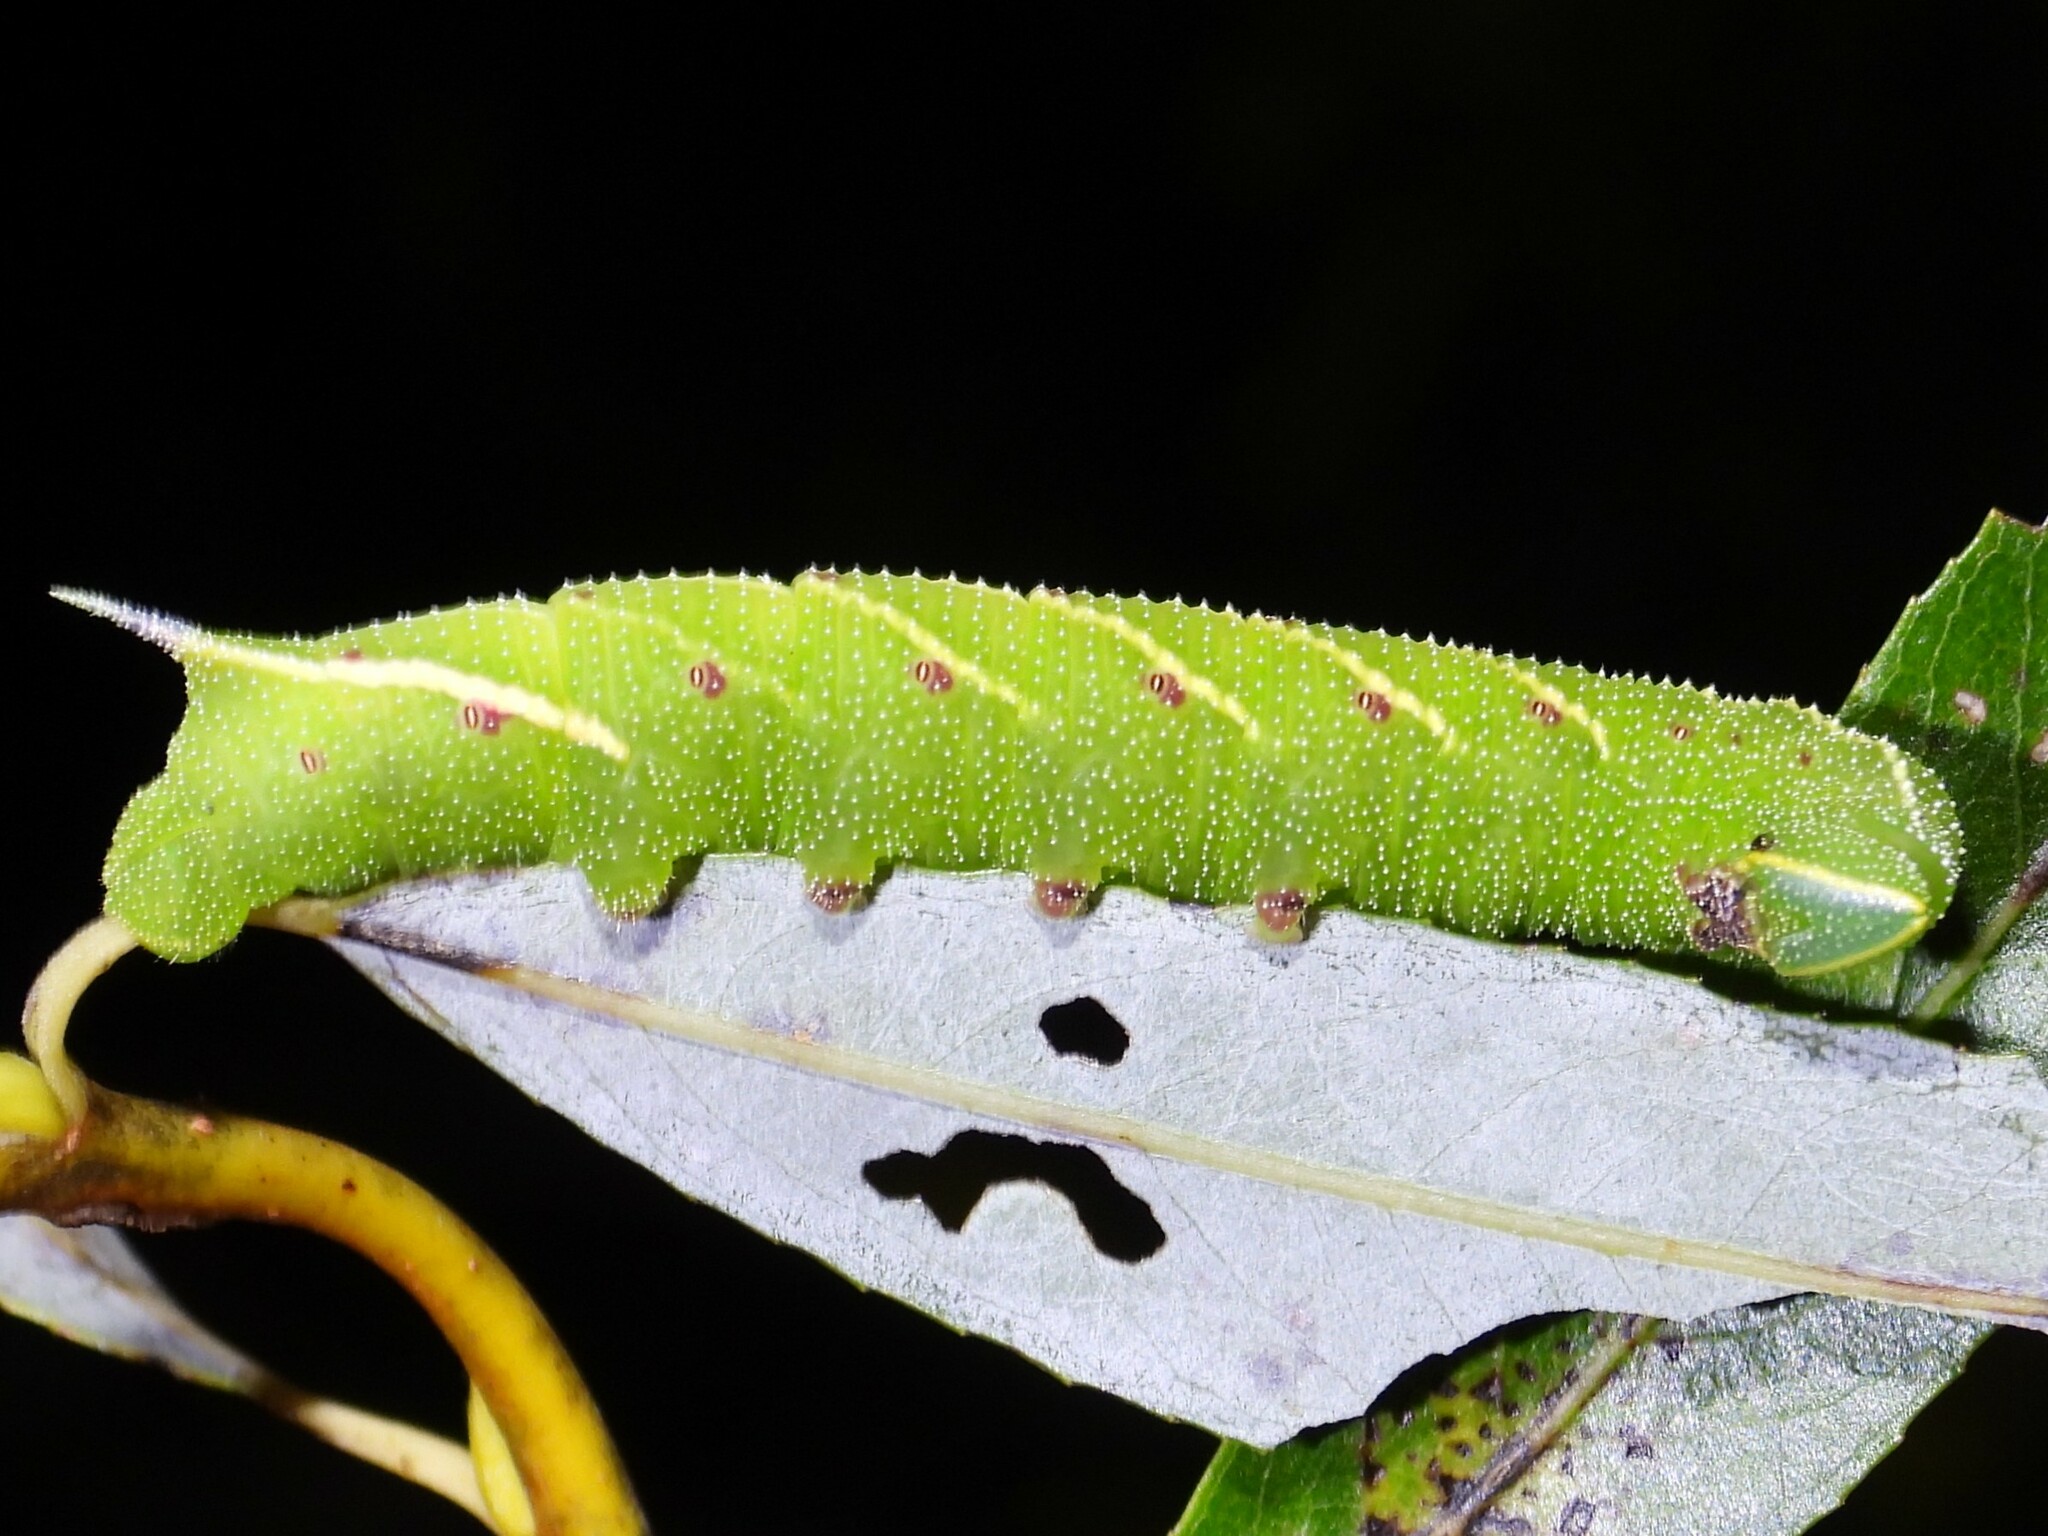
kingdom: Animalia
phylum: Arthropoda
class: Insecta
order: Lepidoptera
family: Sphingidae
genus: Smerinthus
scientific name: Smerinthus jamaicensis
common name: Twin spotted sphinx
